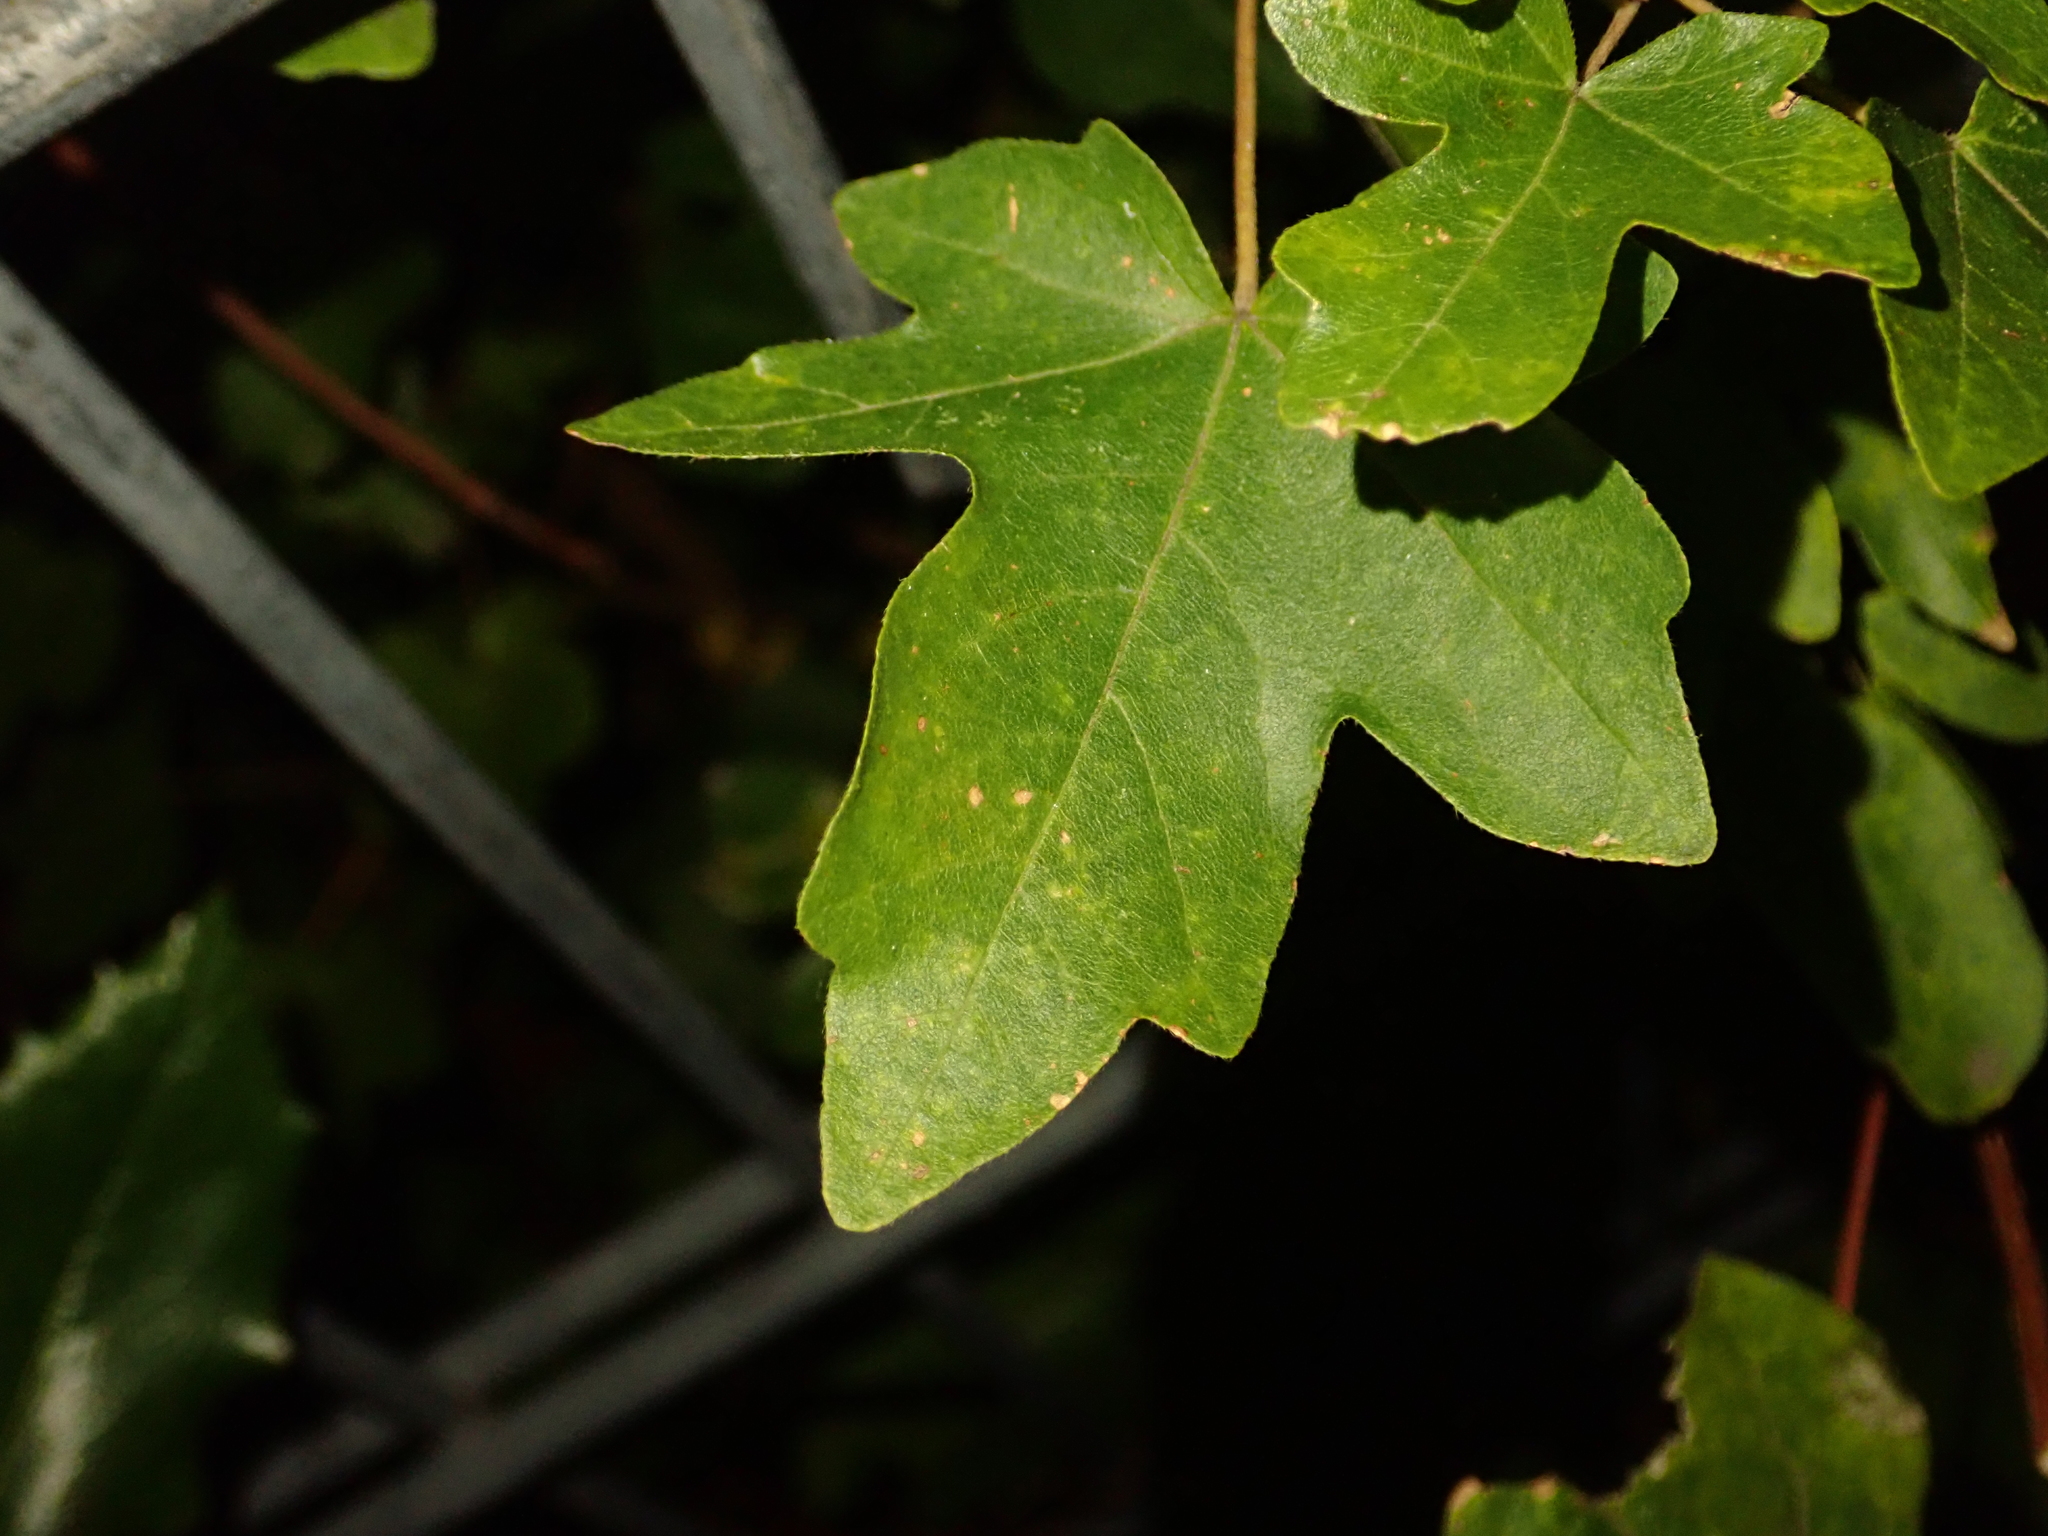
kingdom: Plantae
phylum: Tracheophyta
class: Magnoliopsida
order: Sapindales
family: Sapindaceae
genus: Acer
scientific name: Acer campestre
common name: Field maple
